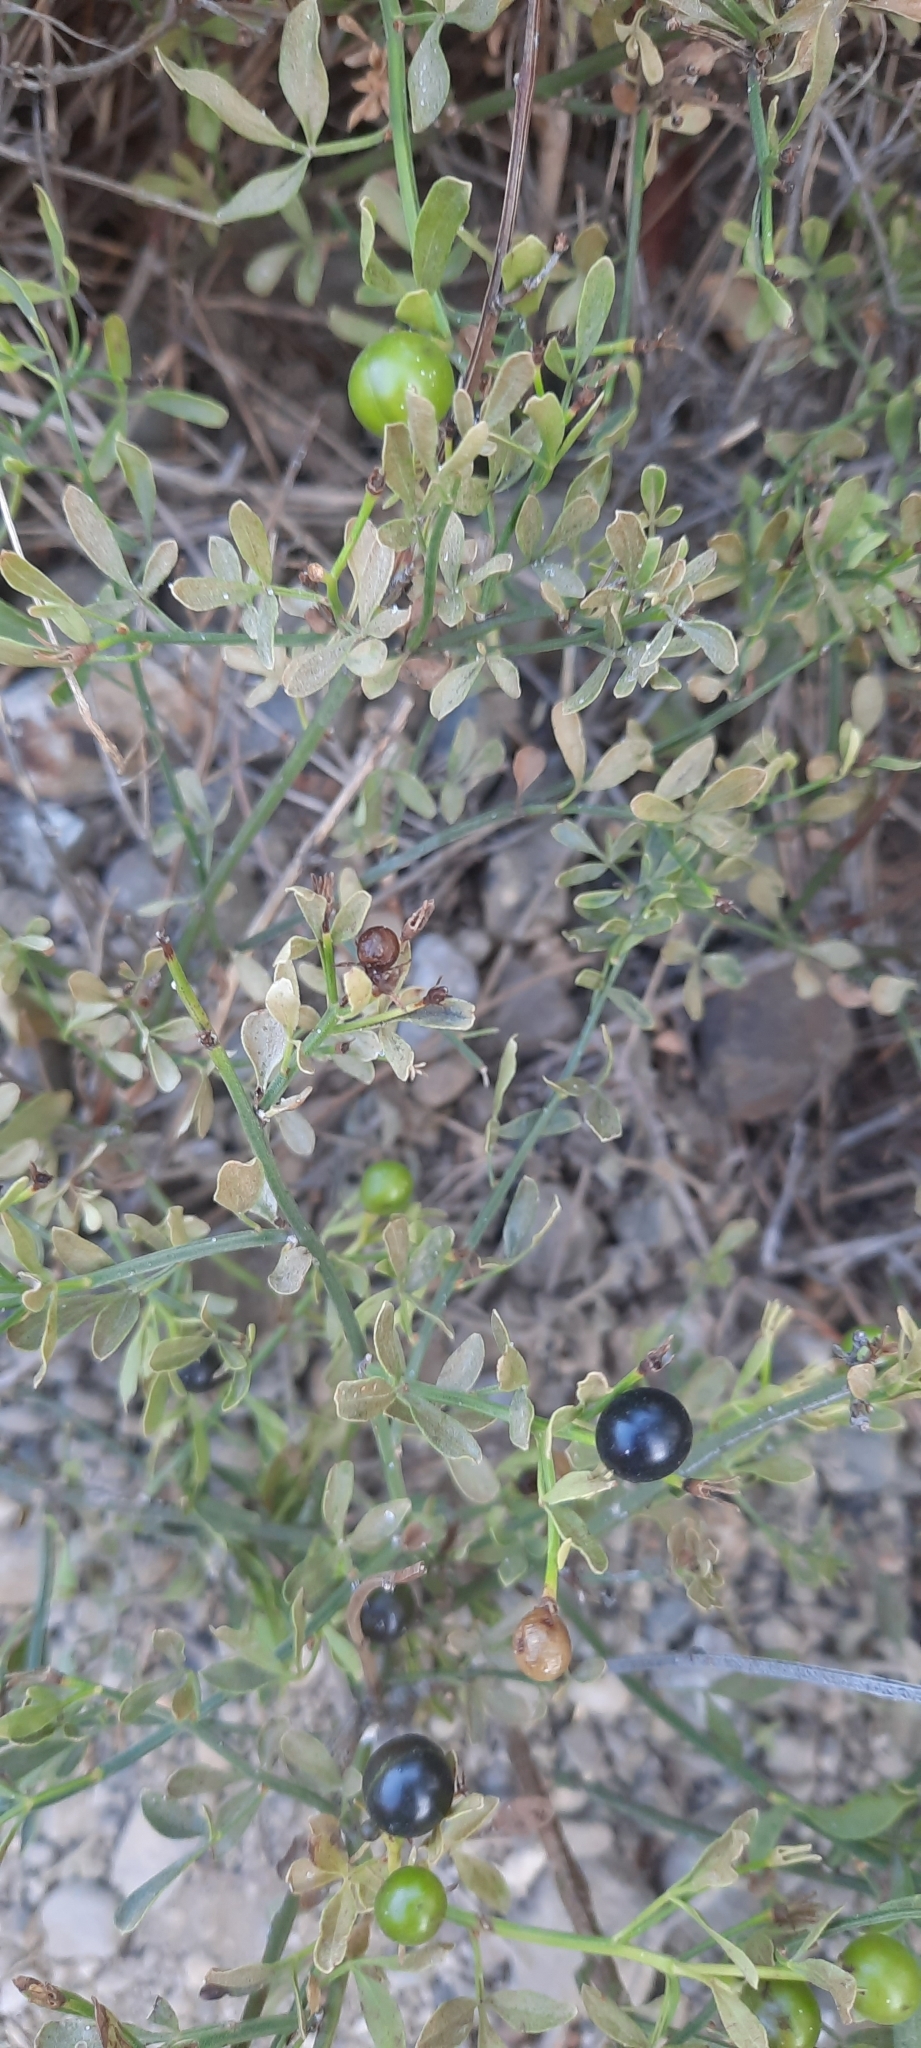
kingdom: Plantae
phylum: Tracheophyta
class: Magnoliopsida
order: Lamiales
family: Oleaceae
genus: Chrysojasminum
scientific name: Chrysojasminum fruticans
